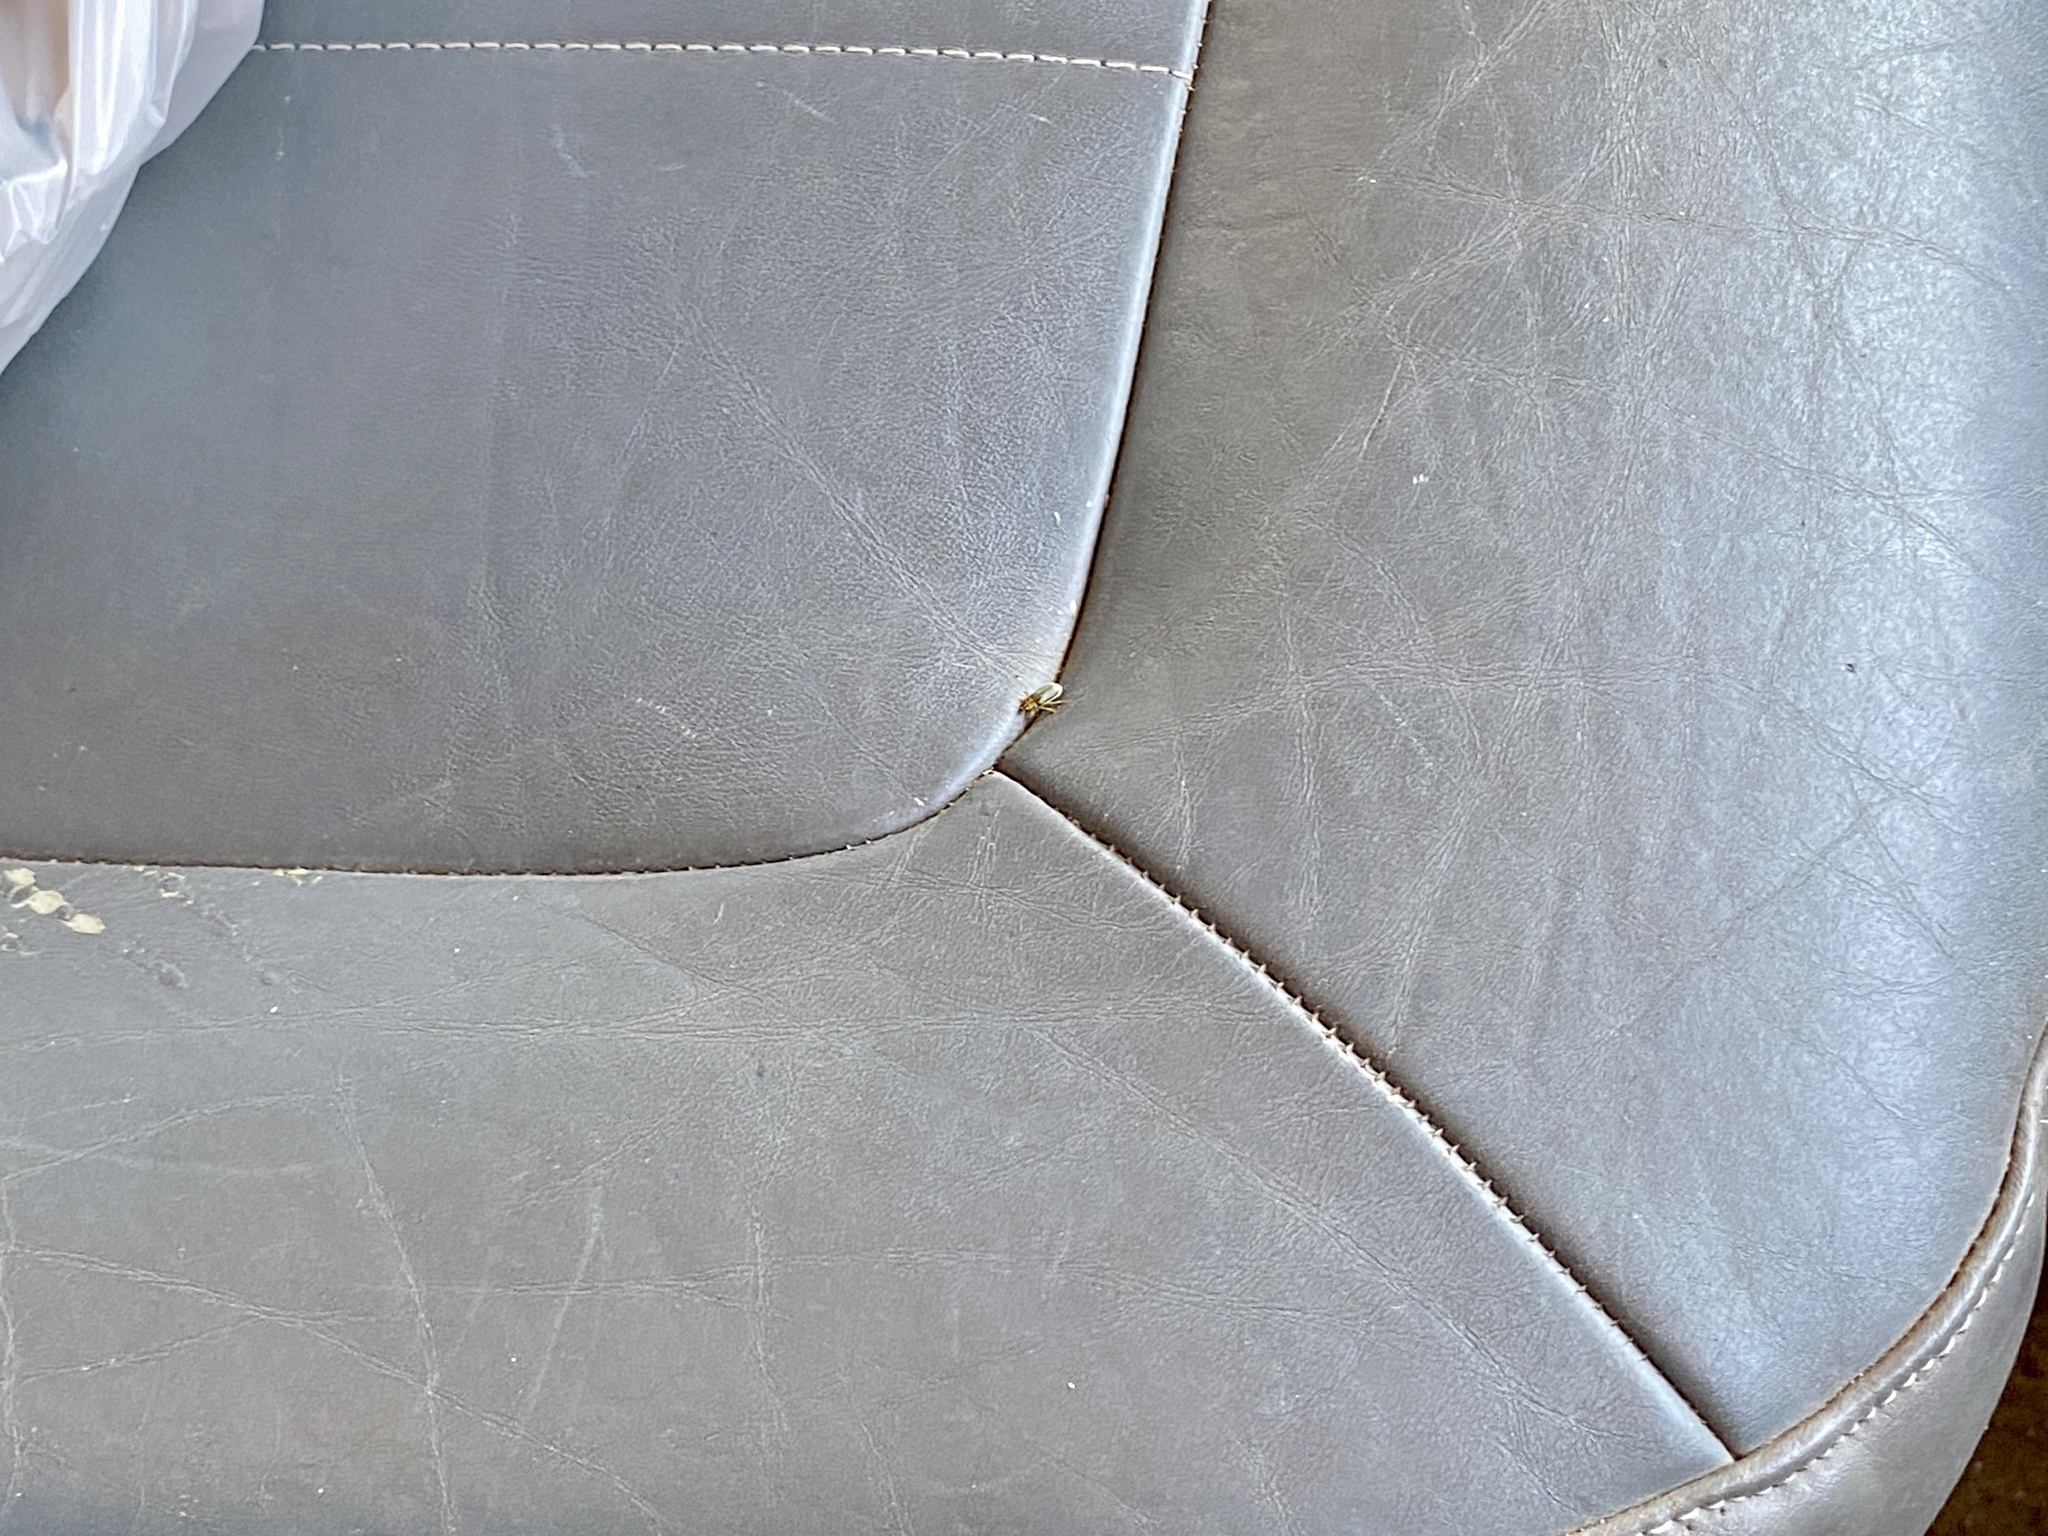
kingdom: Animalia
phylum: Arthropoda
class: Insecta
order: Coleoptera
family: Chrysomelidae
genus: Xanthogaleruca
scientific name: Xanthogaleruca luteola
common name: Elm leaf beetle
